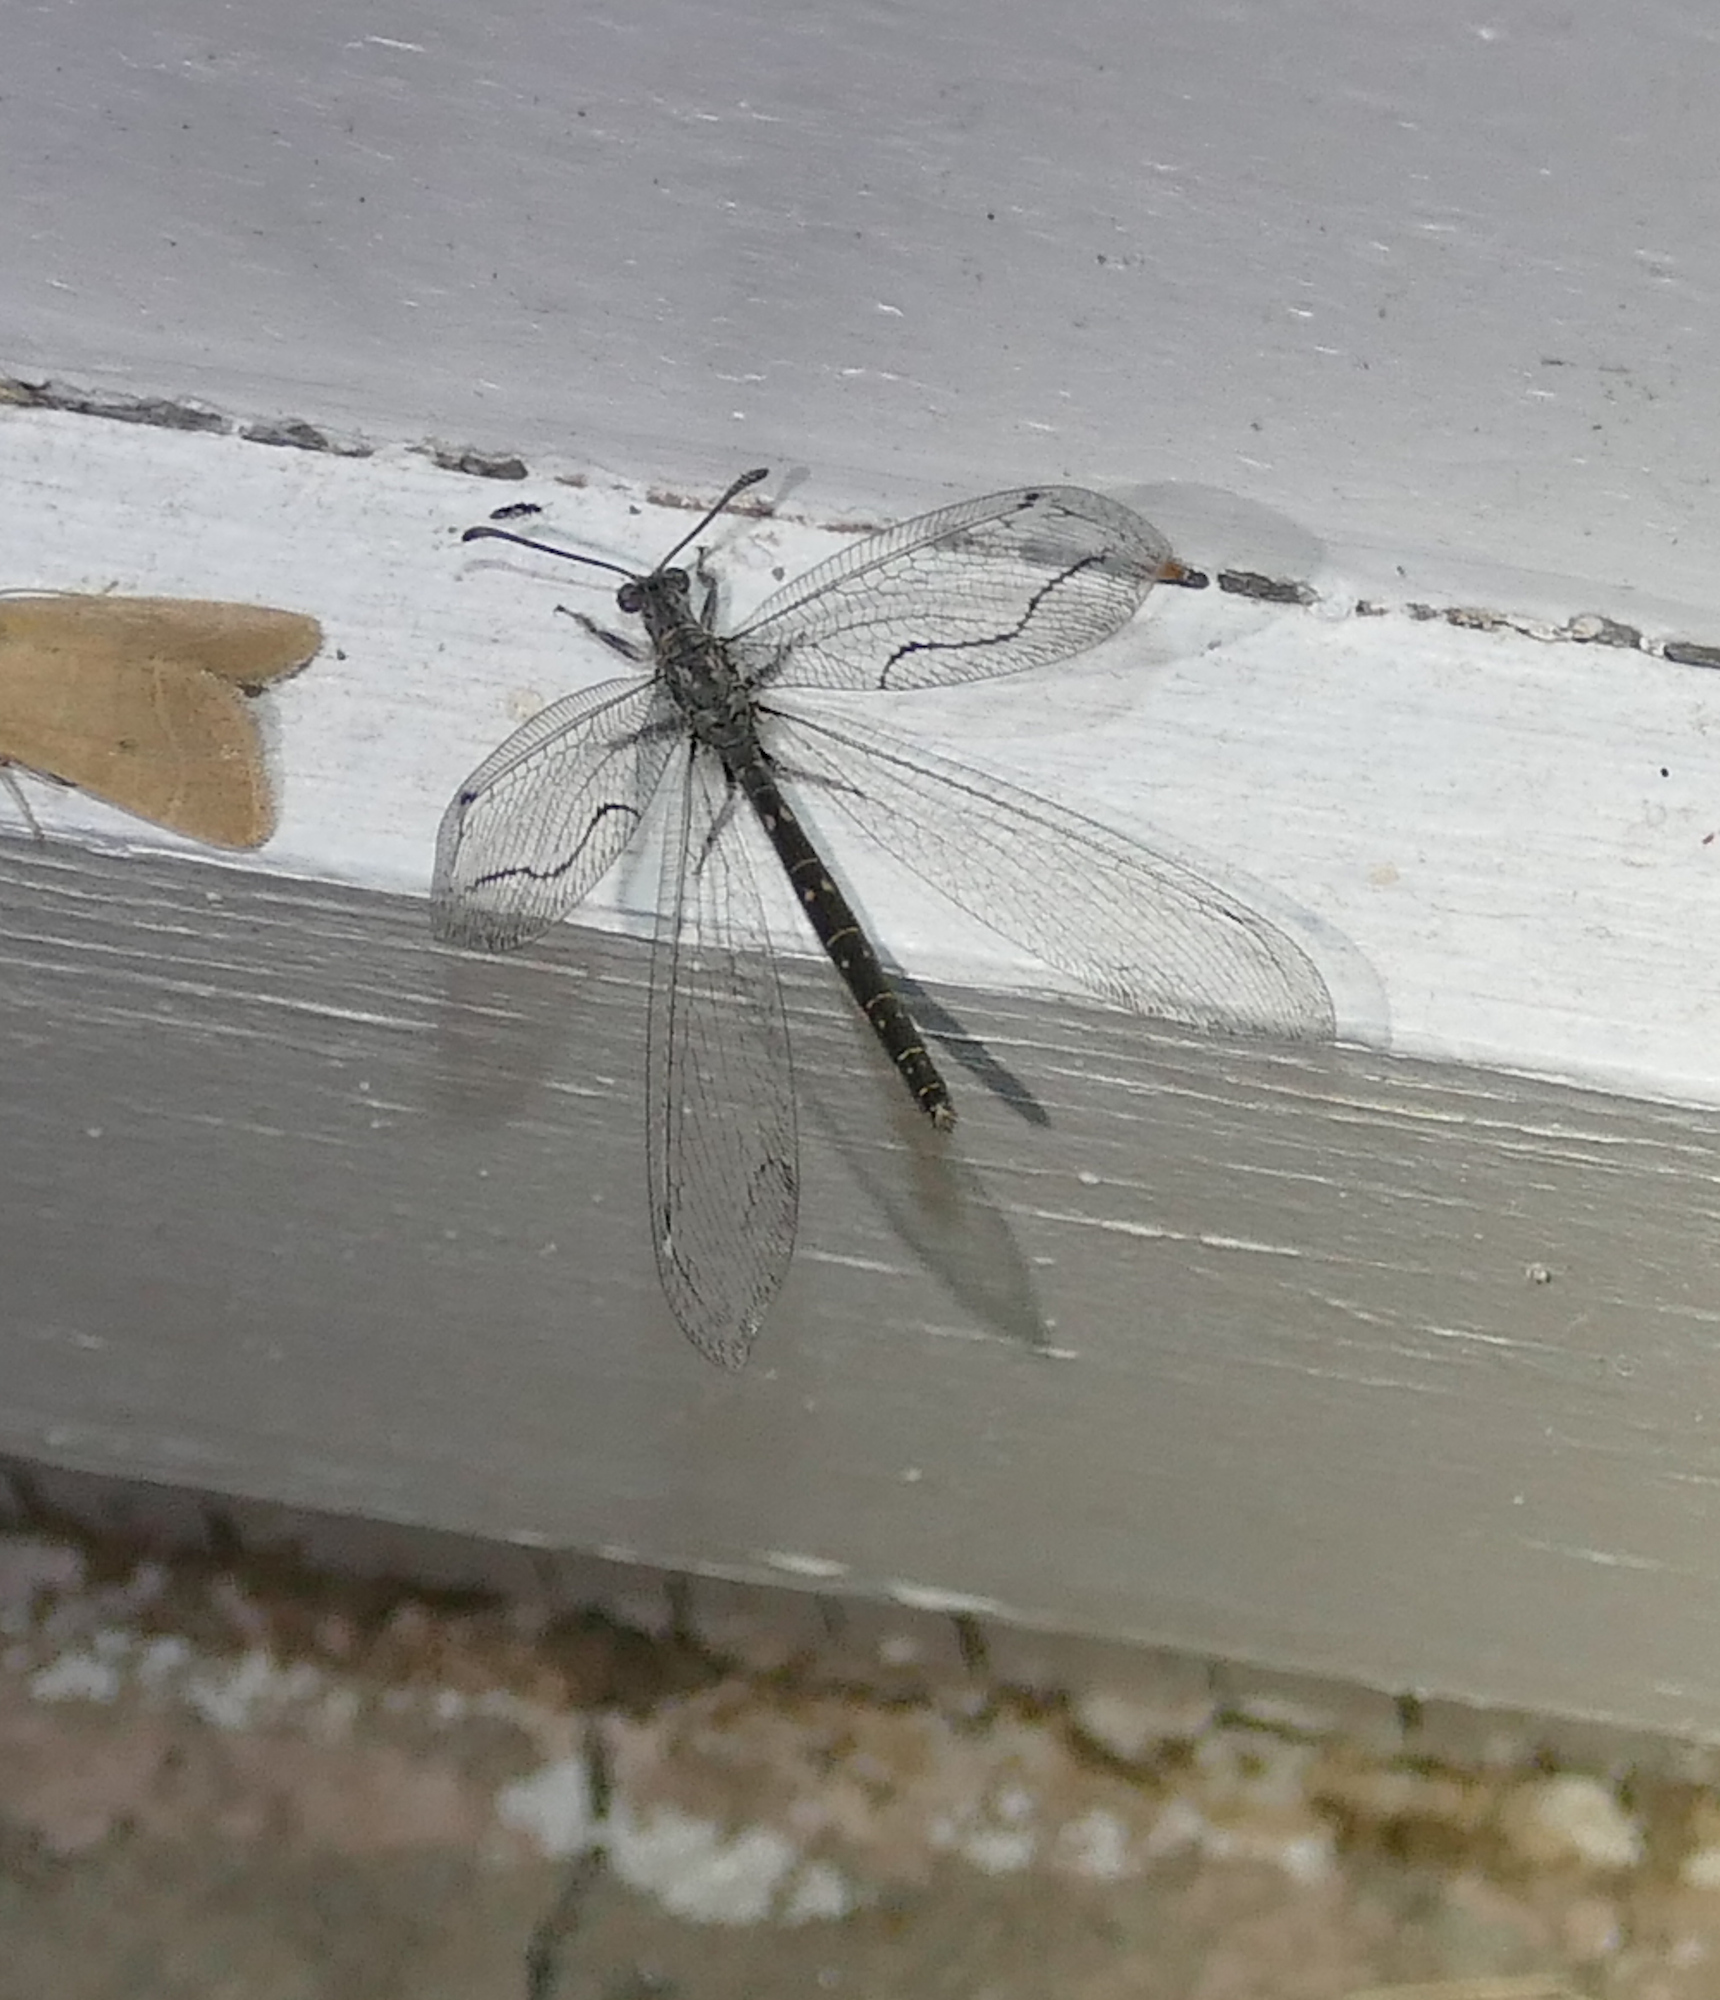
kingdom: Animalia
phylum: Arthropoda
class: Insecta
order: Neuroptera
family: Myrmeleontidae
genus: Euptilon
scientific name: Euptilon sinuatum
